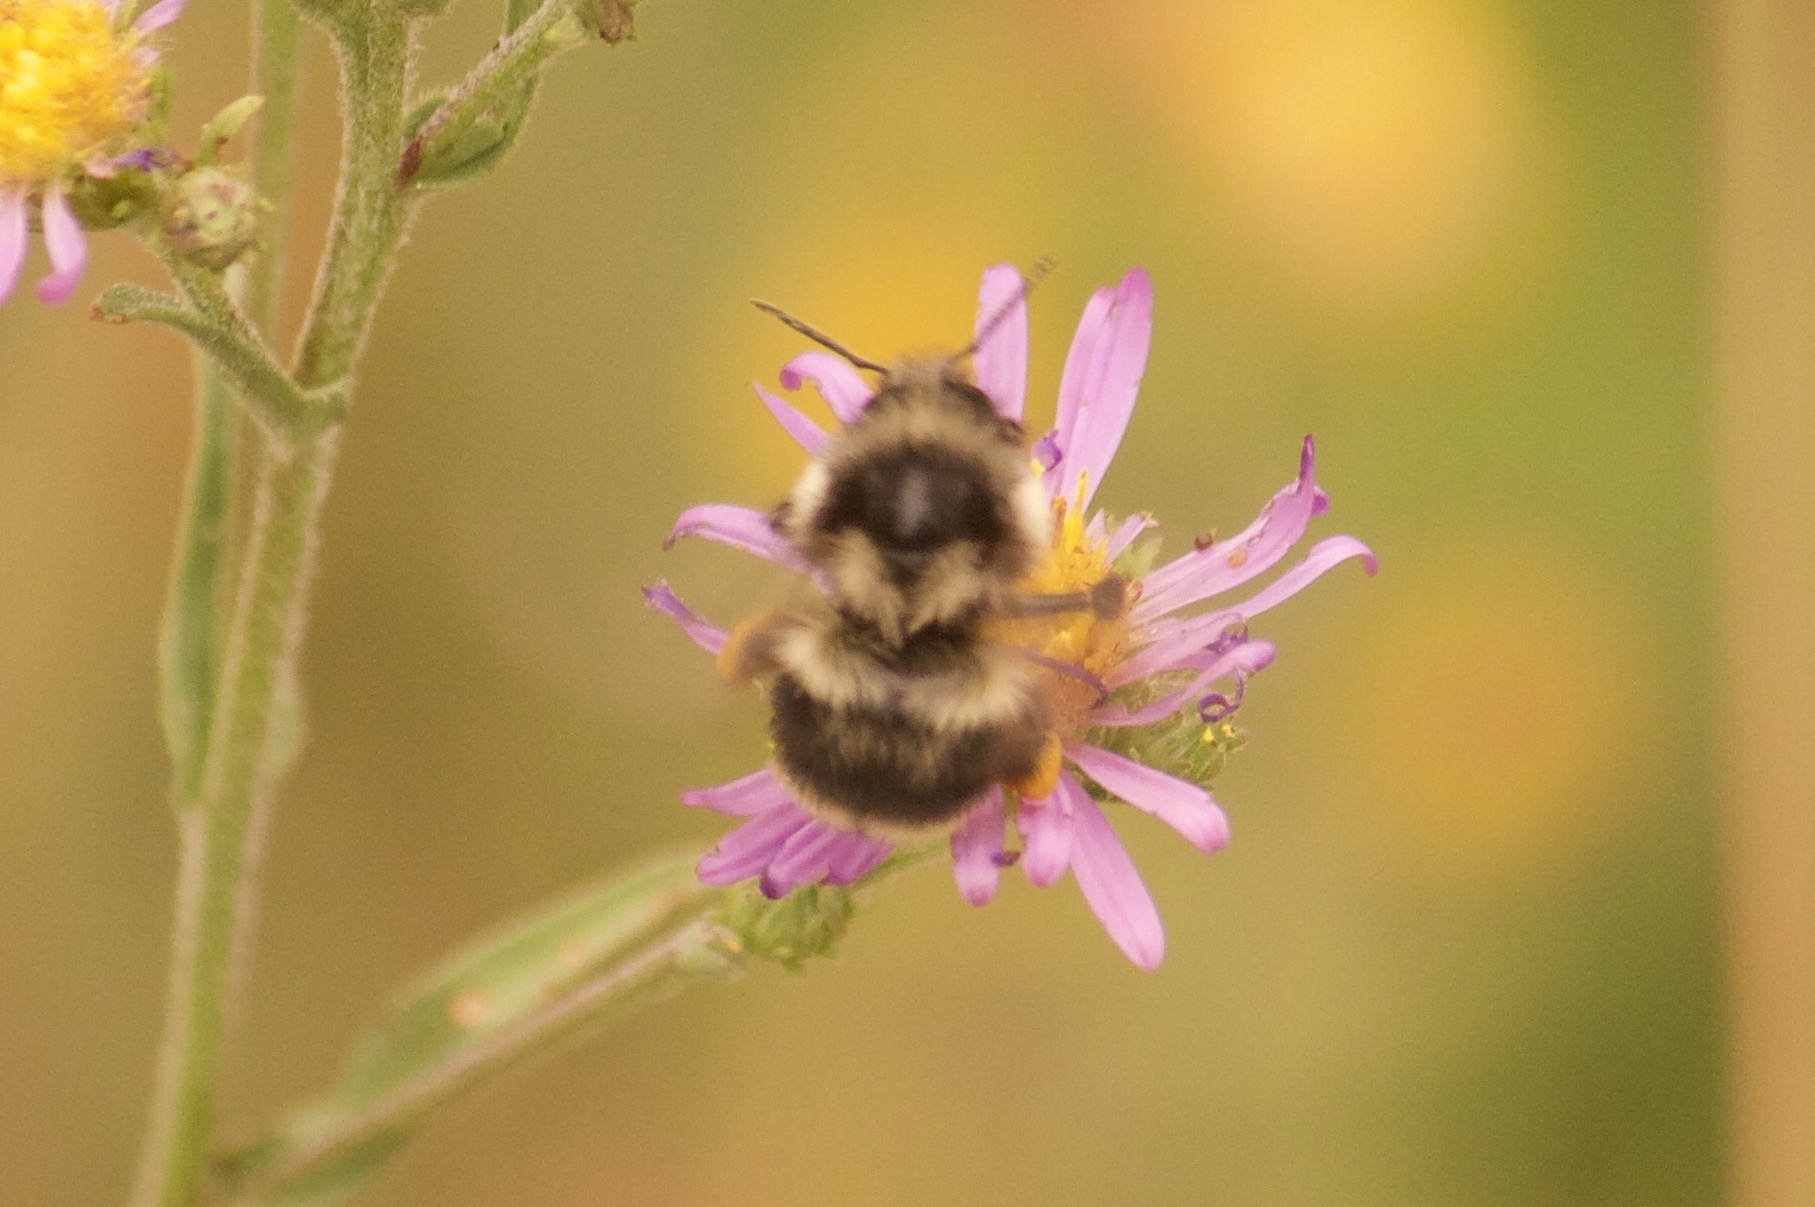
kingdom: Animalia
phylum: Arthropoda
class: Insecta
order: Hymenoptera
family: Apidae
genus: Bombus
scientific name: Bombus vancouverensis
